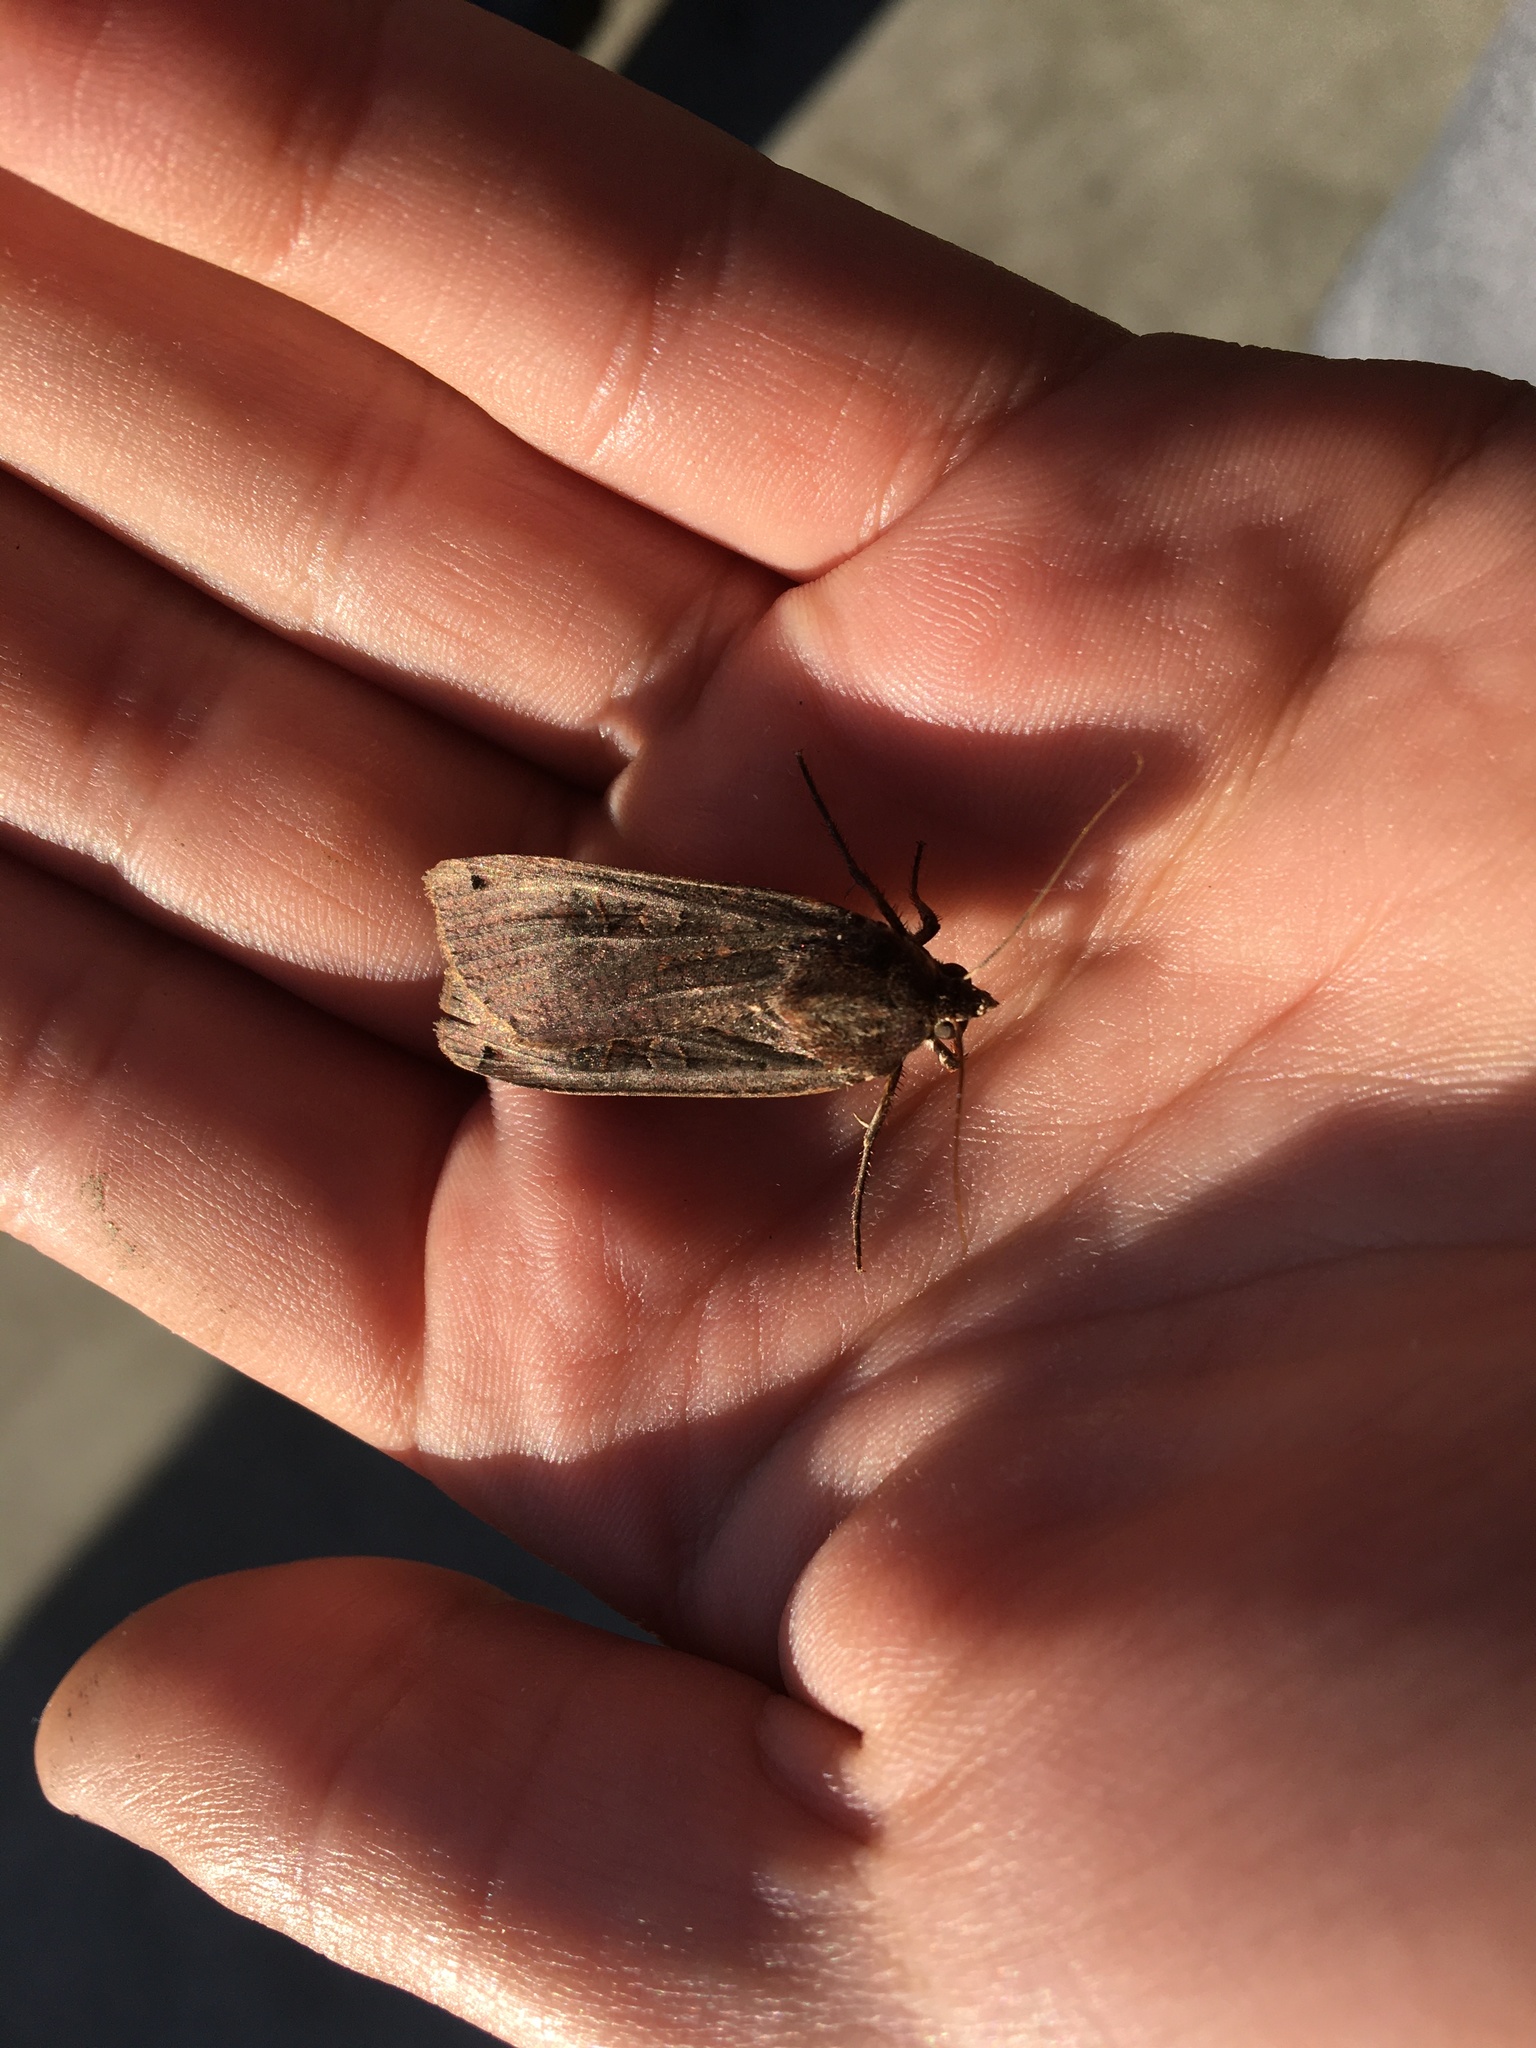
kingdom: Animalia
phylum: Arthropoda
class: Insecta
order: Lepidoptera
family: Noctuidae
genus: Noctua
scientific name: Noctua pronuba
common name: Large yellow underwing
